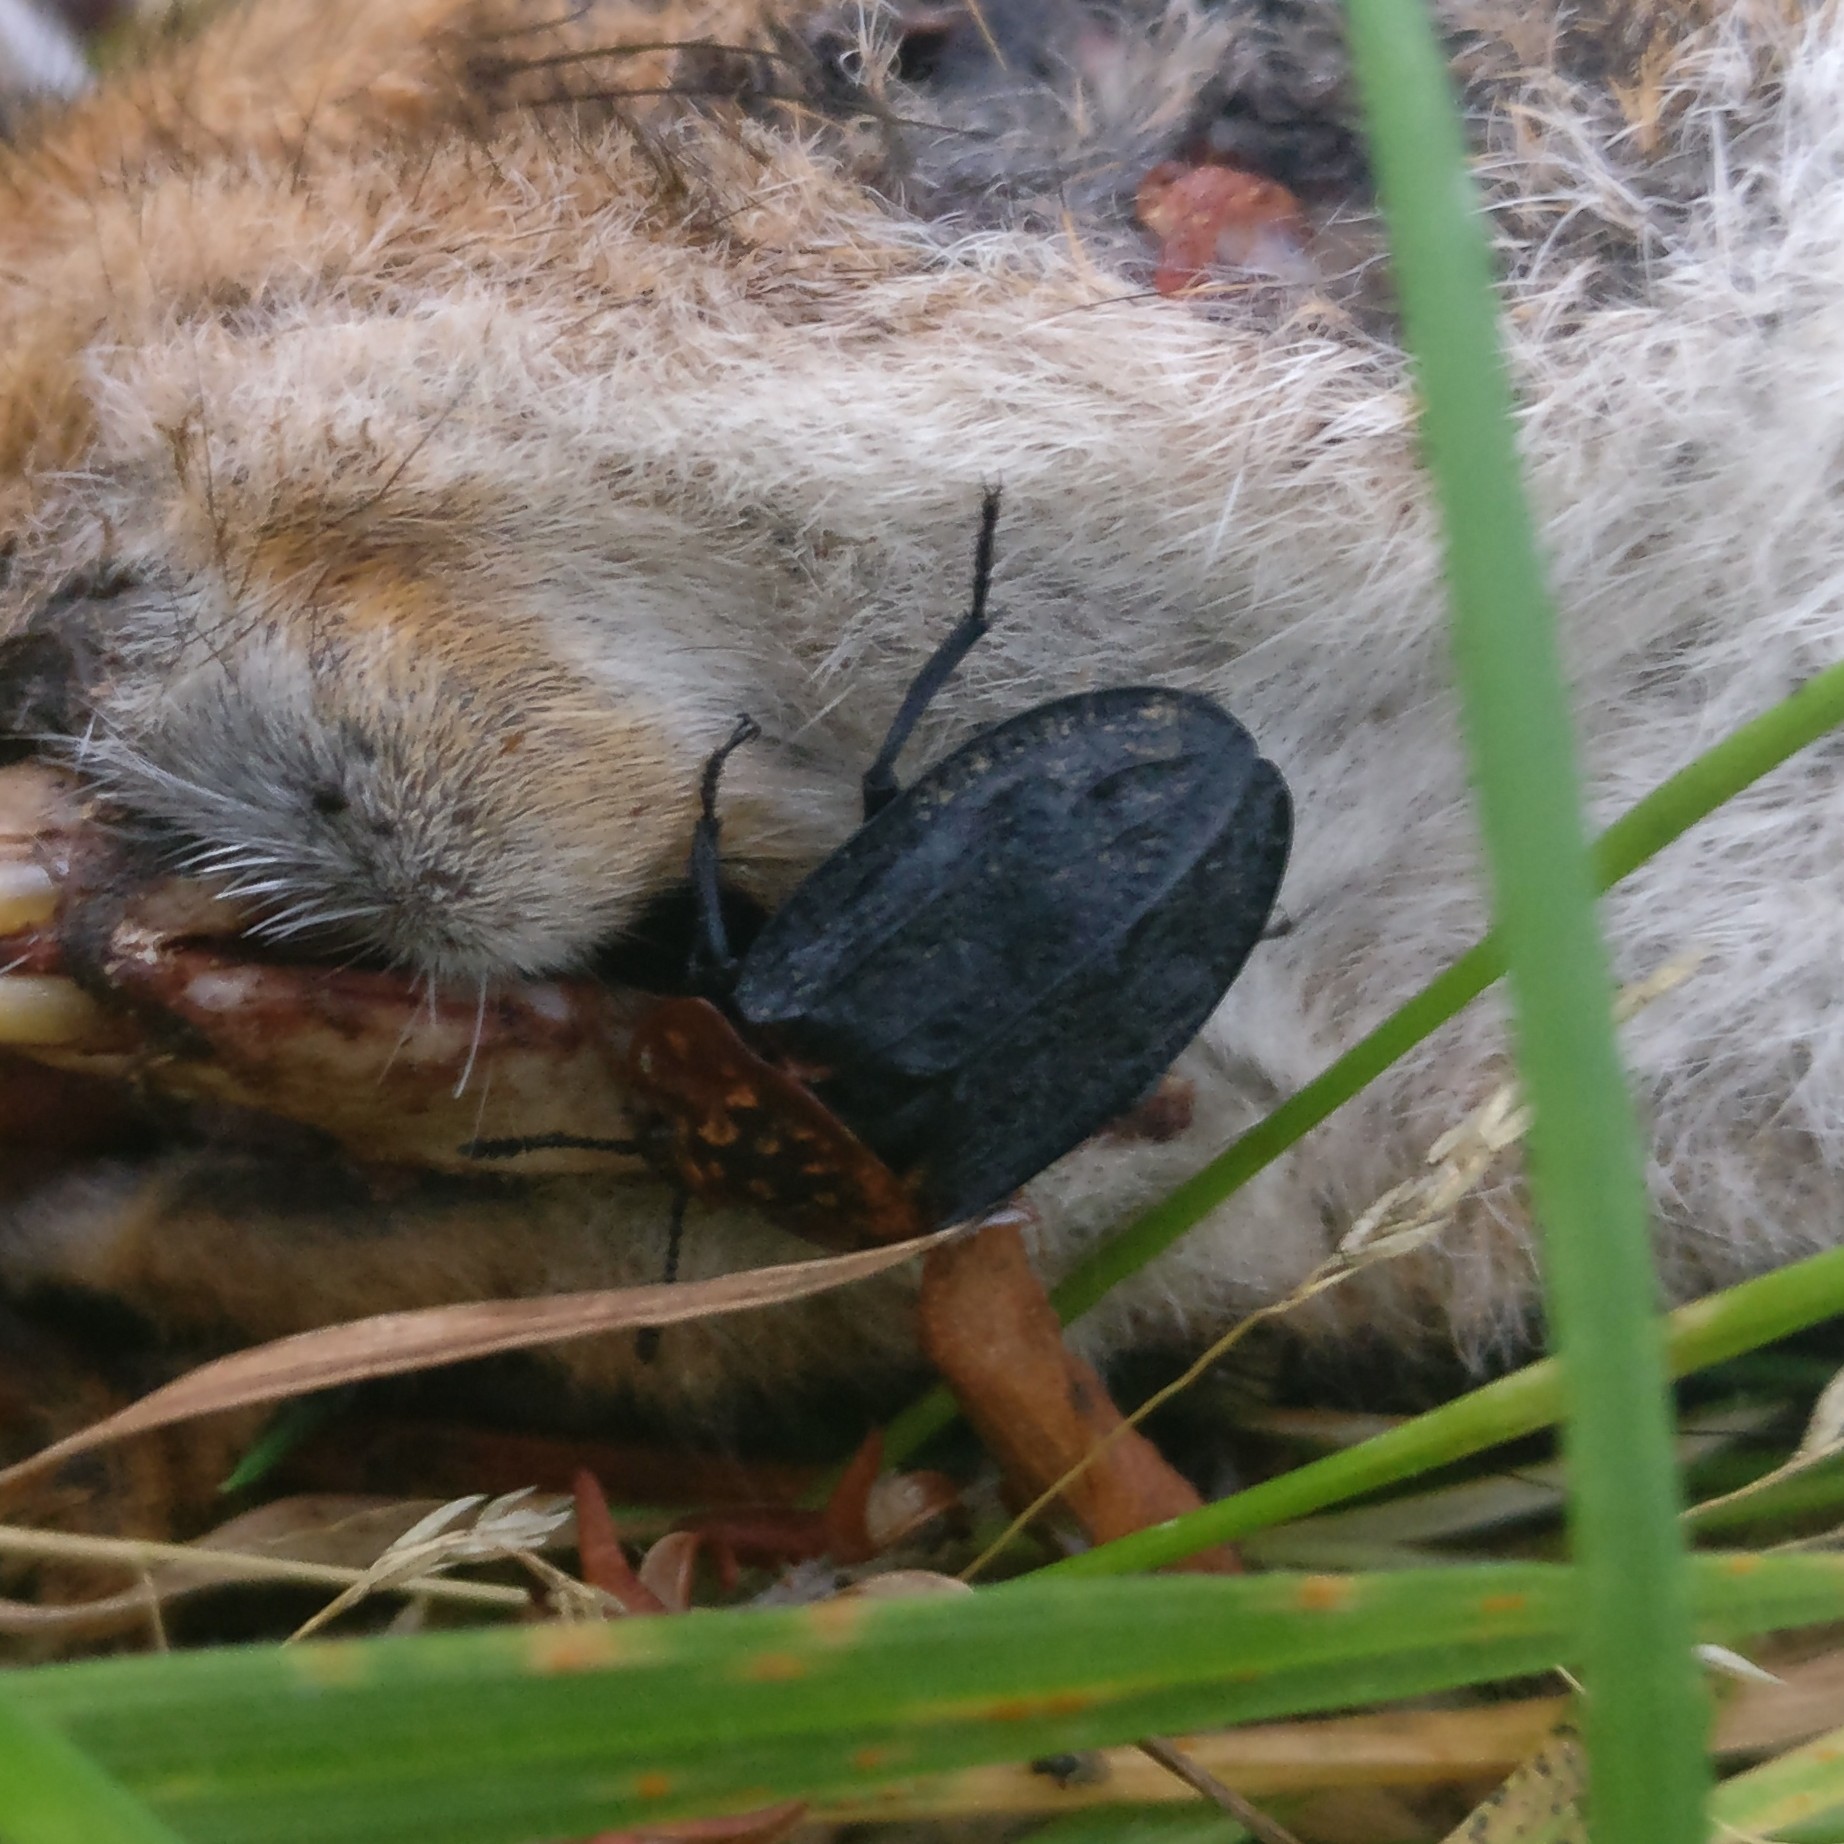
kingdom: Animalia
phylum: Arthropoda
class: Insecta
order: Coleoptera
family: Staphylinidae
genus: Oiceoptoma
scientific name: Oiceoptoma thoracicum
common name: Red-breasted carrion beetle
